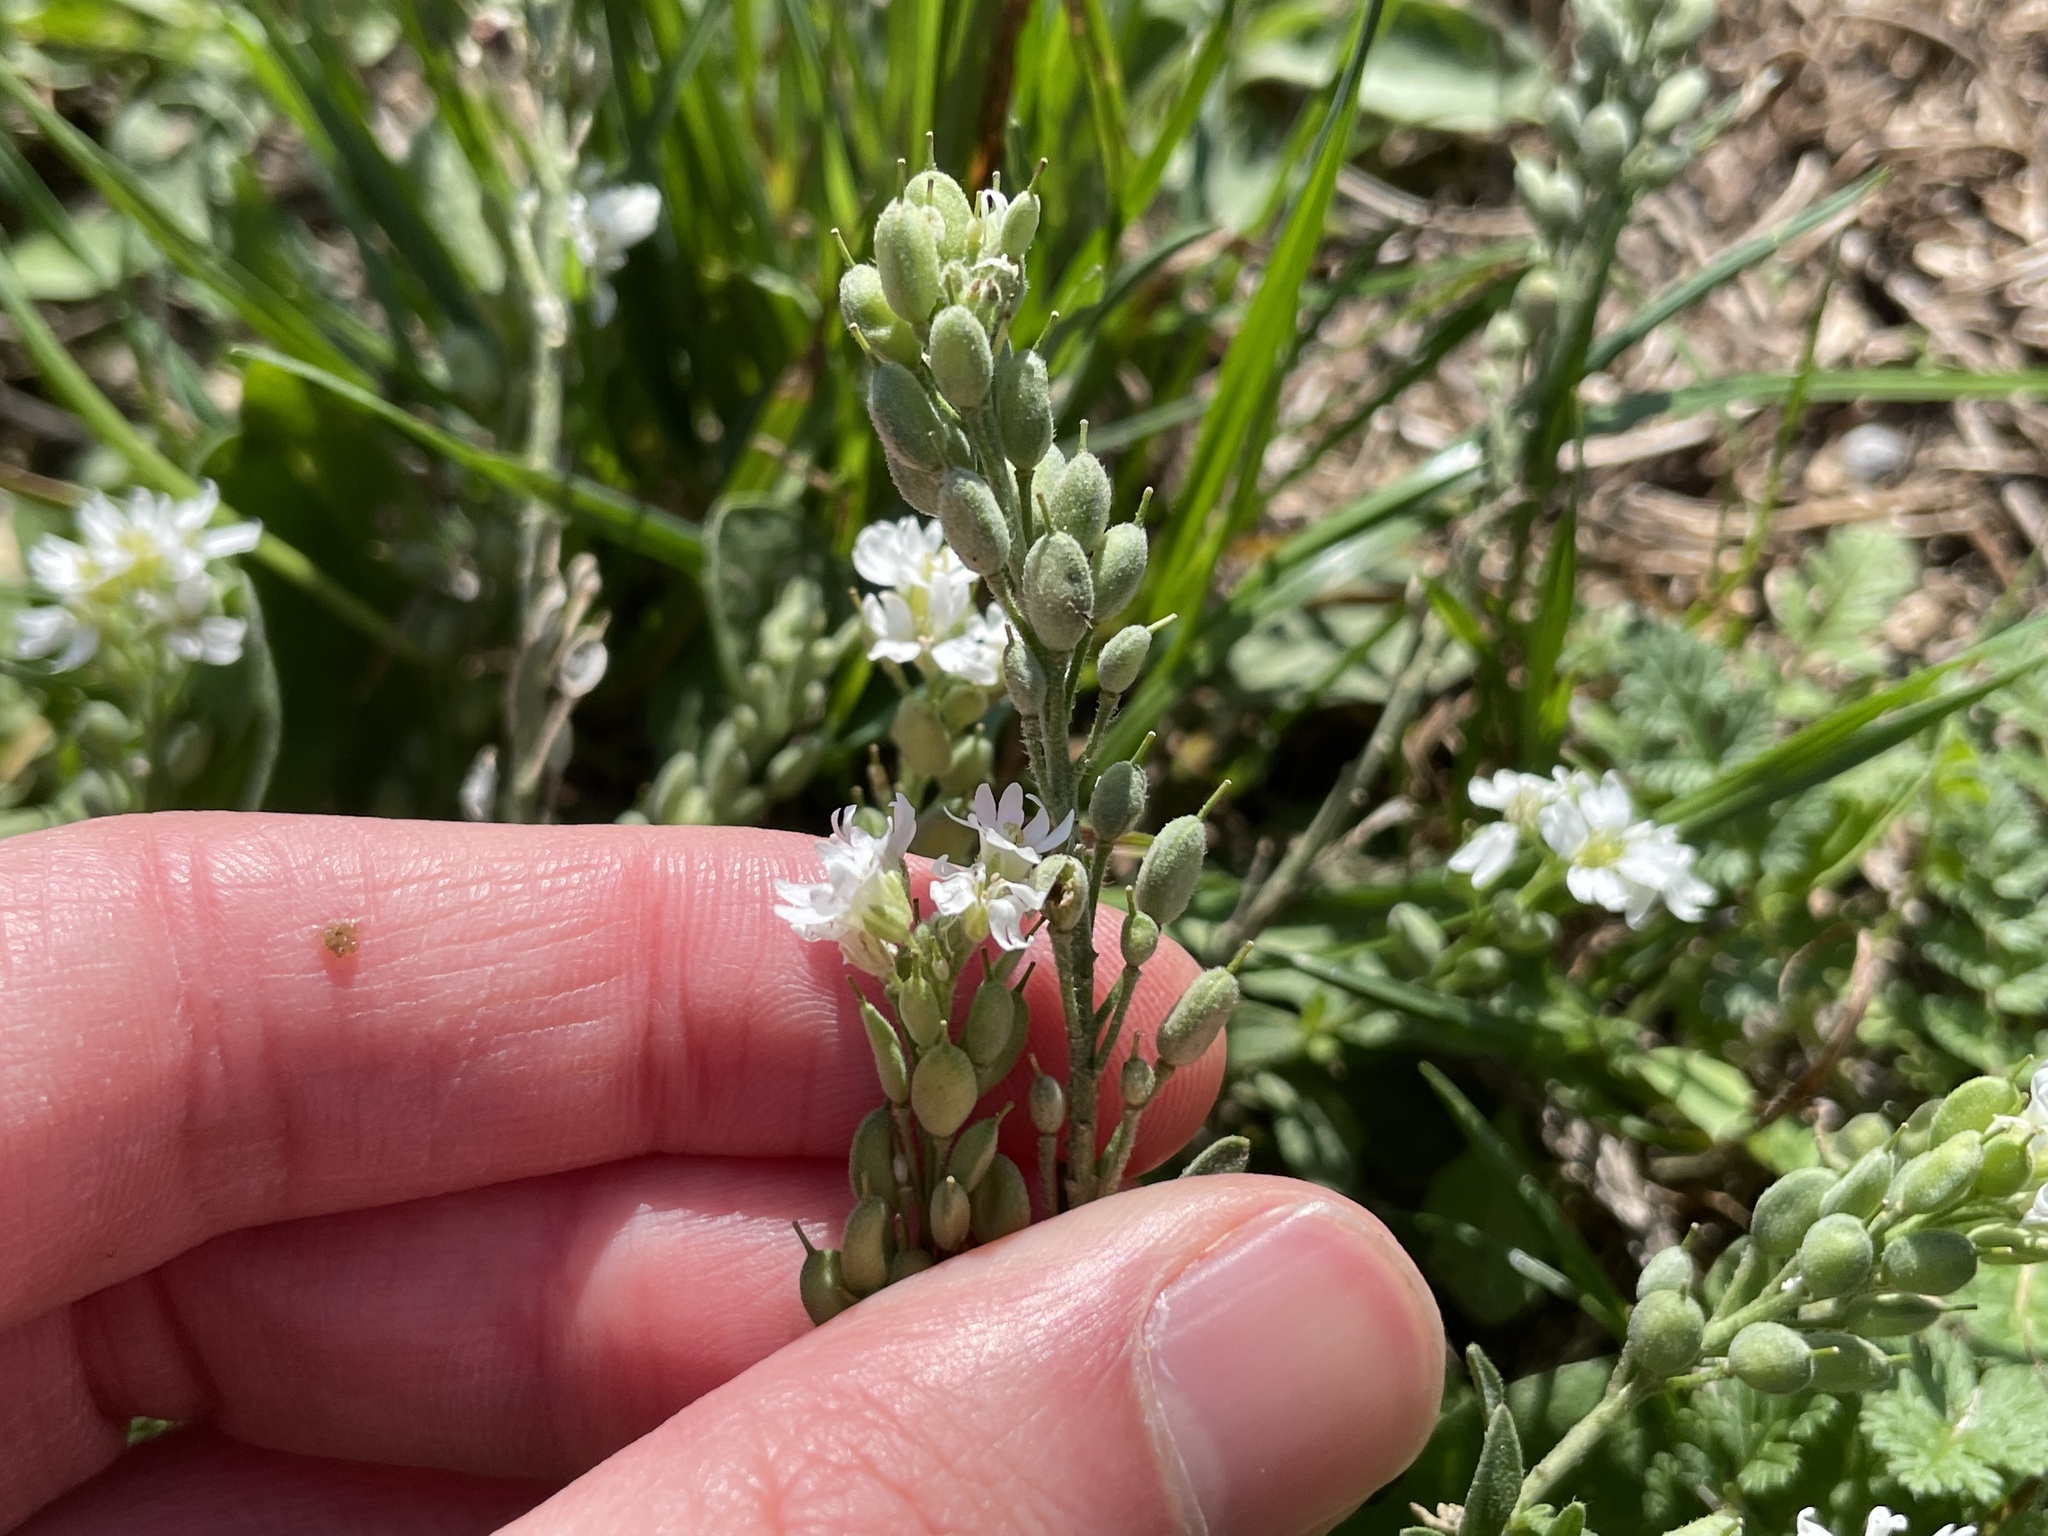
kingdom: Plantae
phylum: Tracheophyta
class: Magnoliopsida
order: Brassicales
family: Brassicaceae
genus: Berteroa
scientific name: Berteroa incana
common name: Hoary alison
